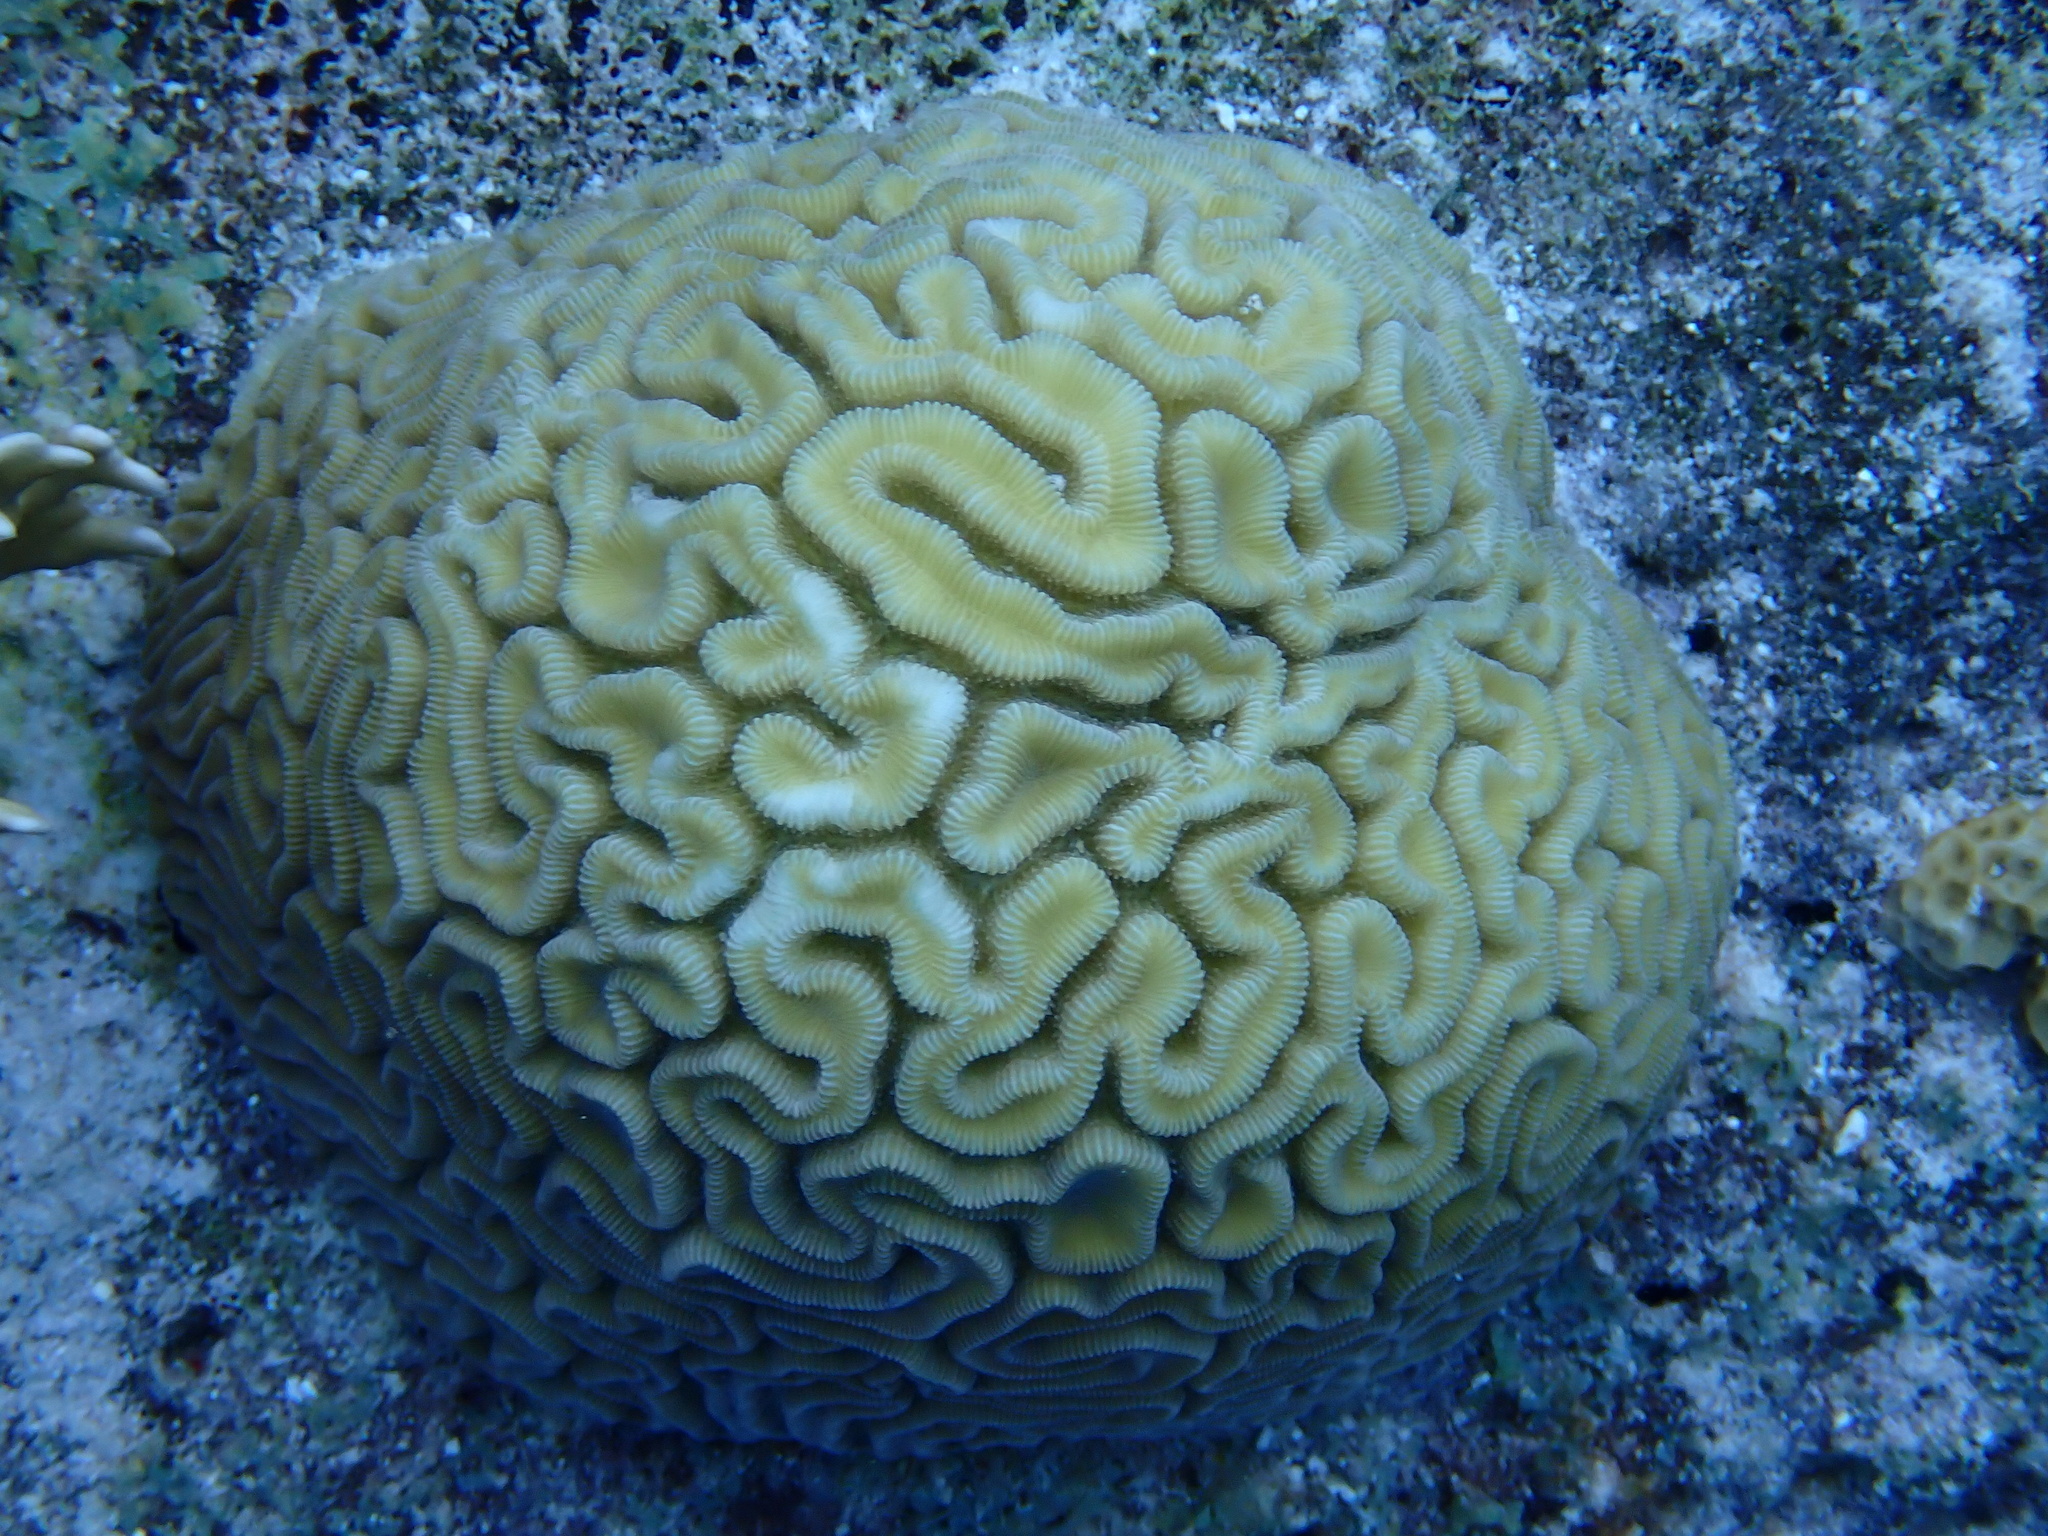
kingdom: Animalia
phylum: Cnidaria
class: Anthozoa
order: Scleractinia
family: Faviidae
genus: Diploria
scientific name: Diploria labyrinthiformis
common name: Grooved brain coral
